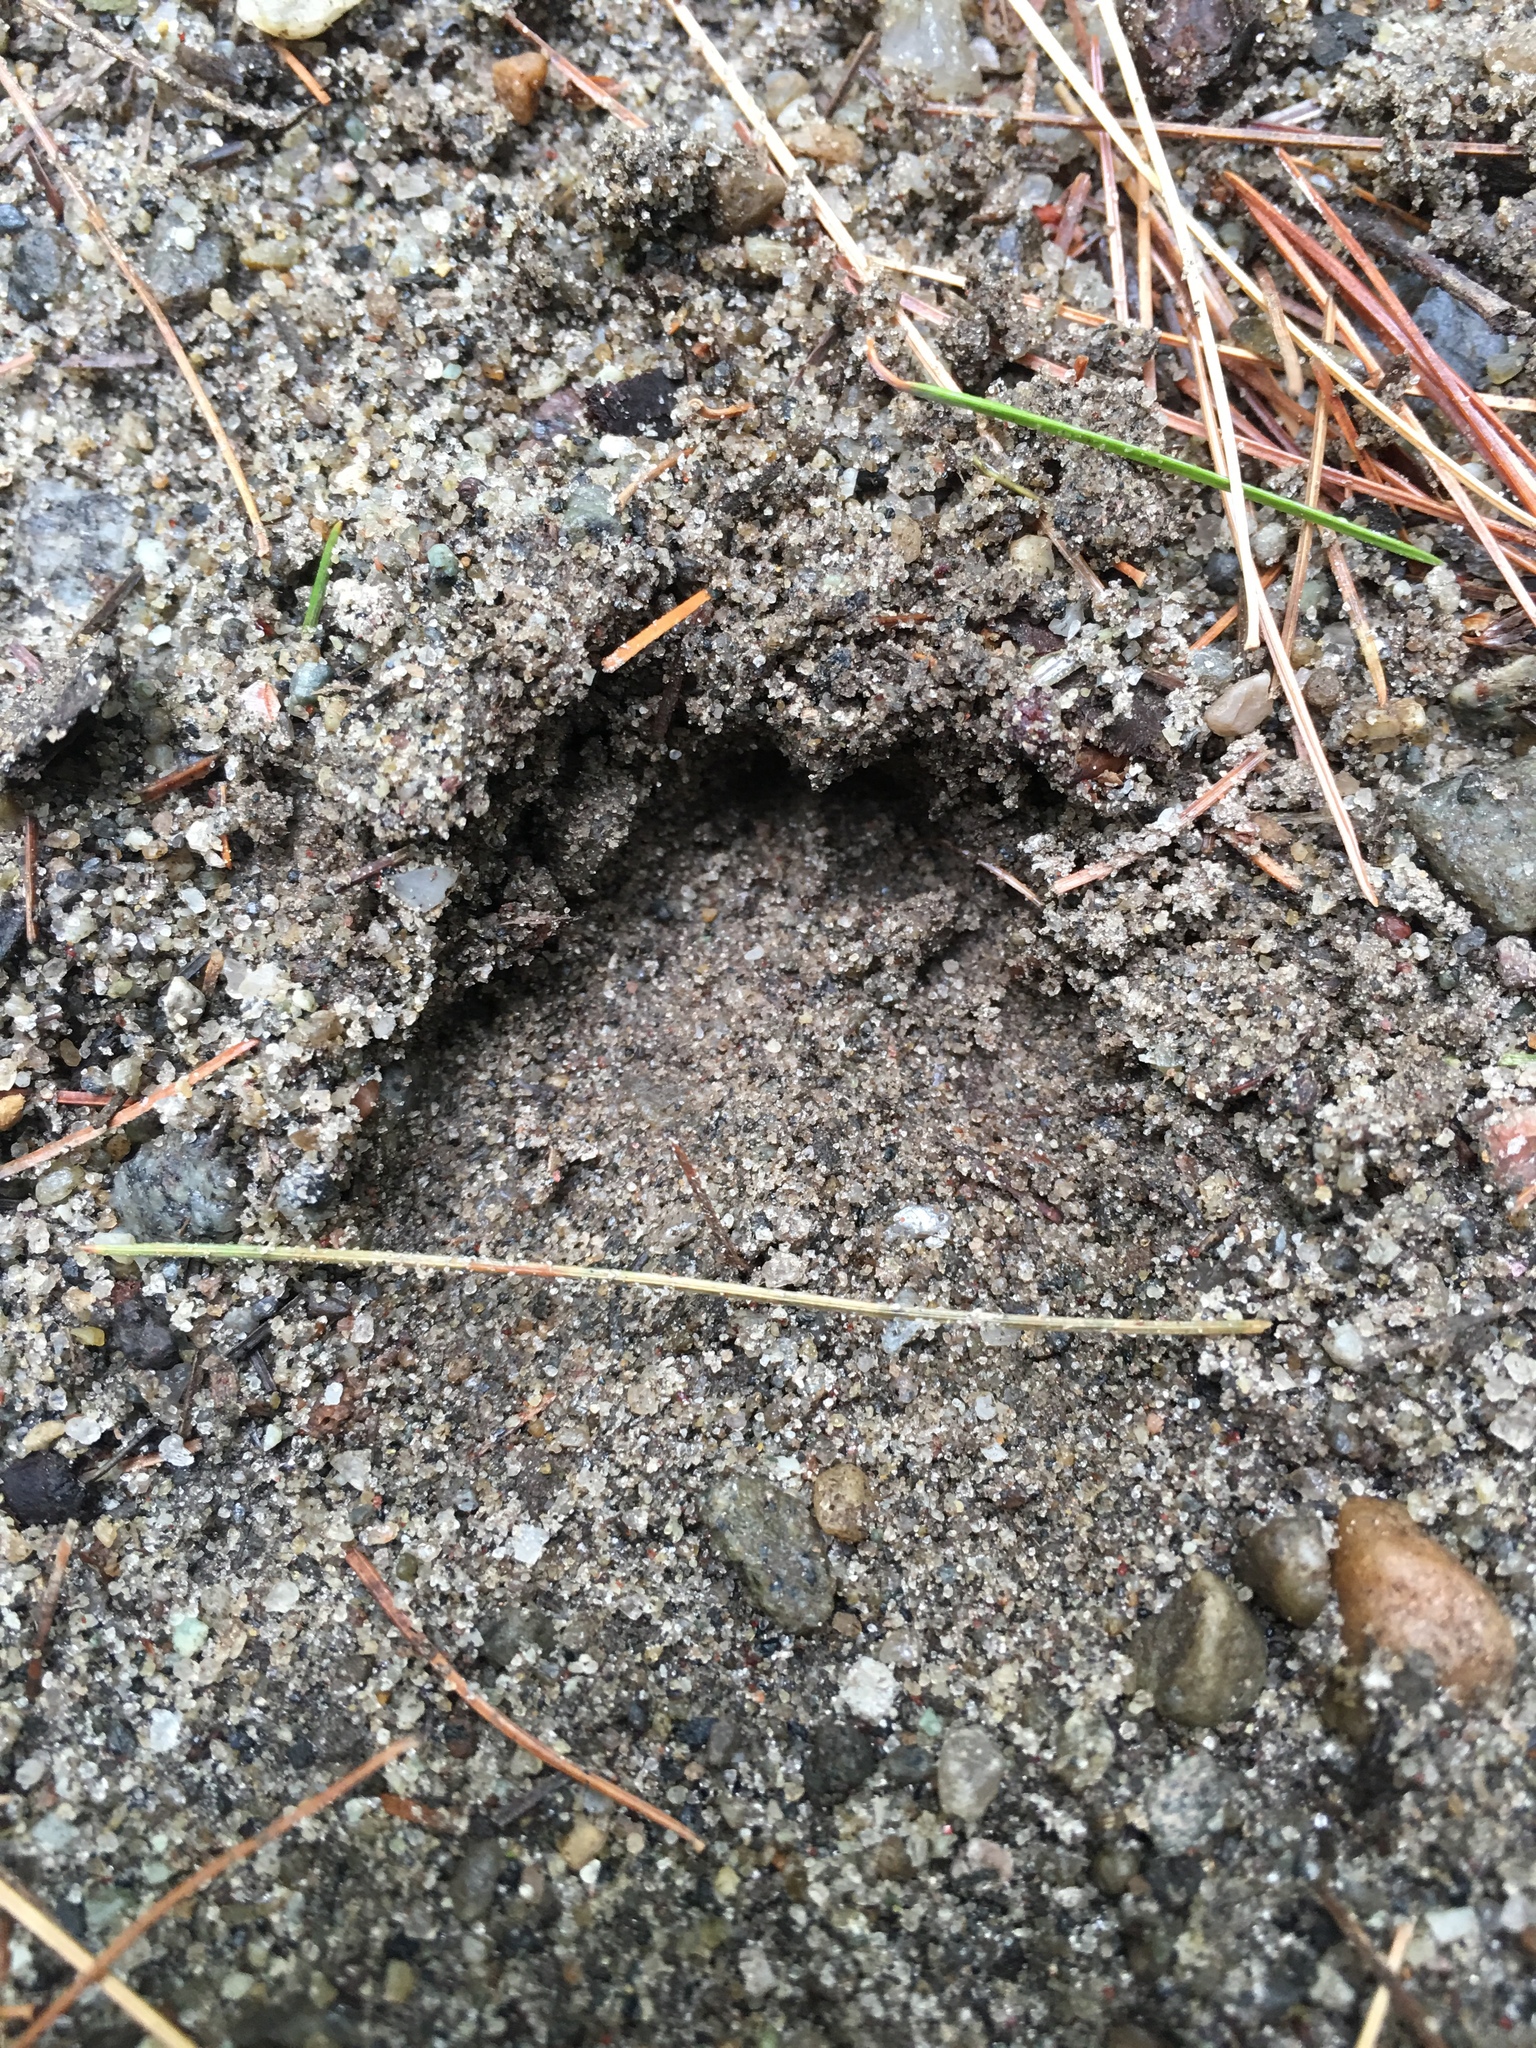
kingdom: Animalia
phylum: Chordata
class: Mammalia
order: Artiodactyla
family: Cervidae
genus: Odocoileus
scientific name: Odocoileus virginianus
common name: White-tailed deer
